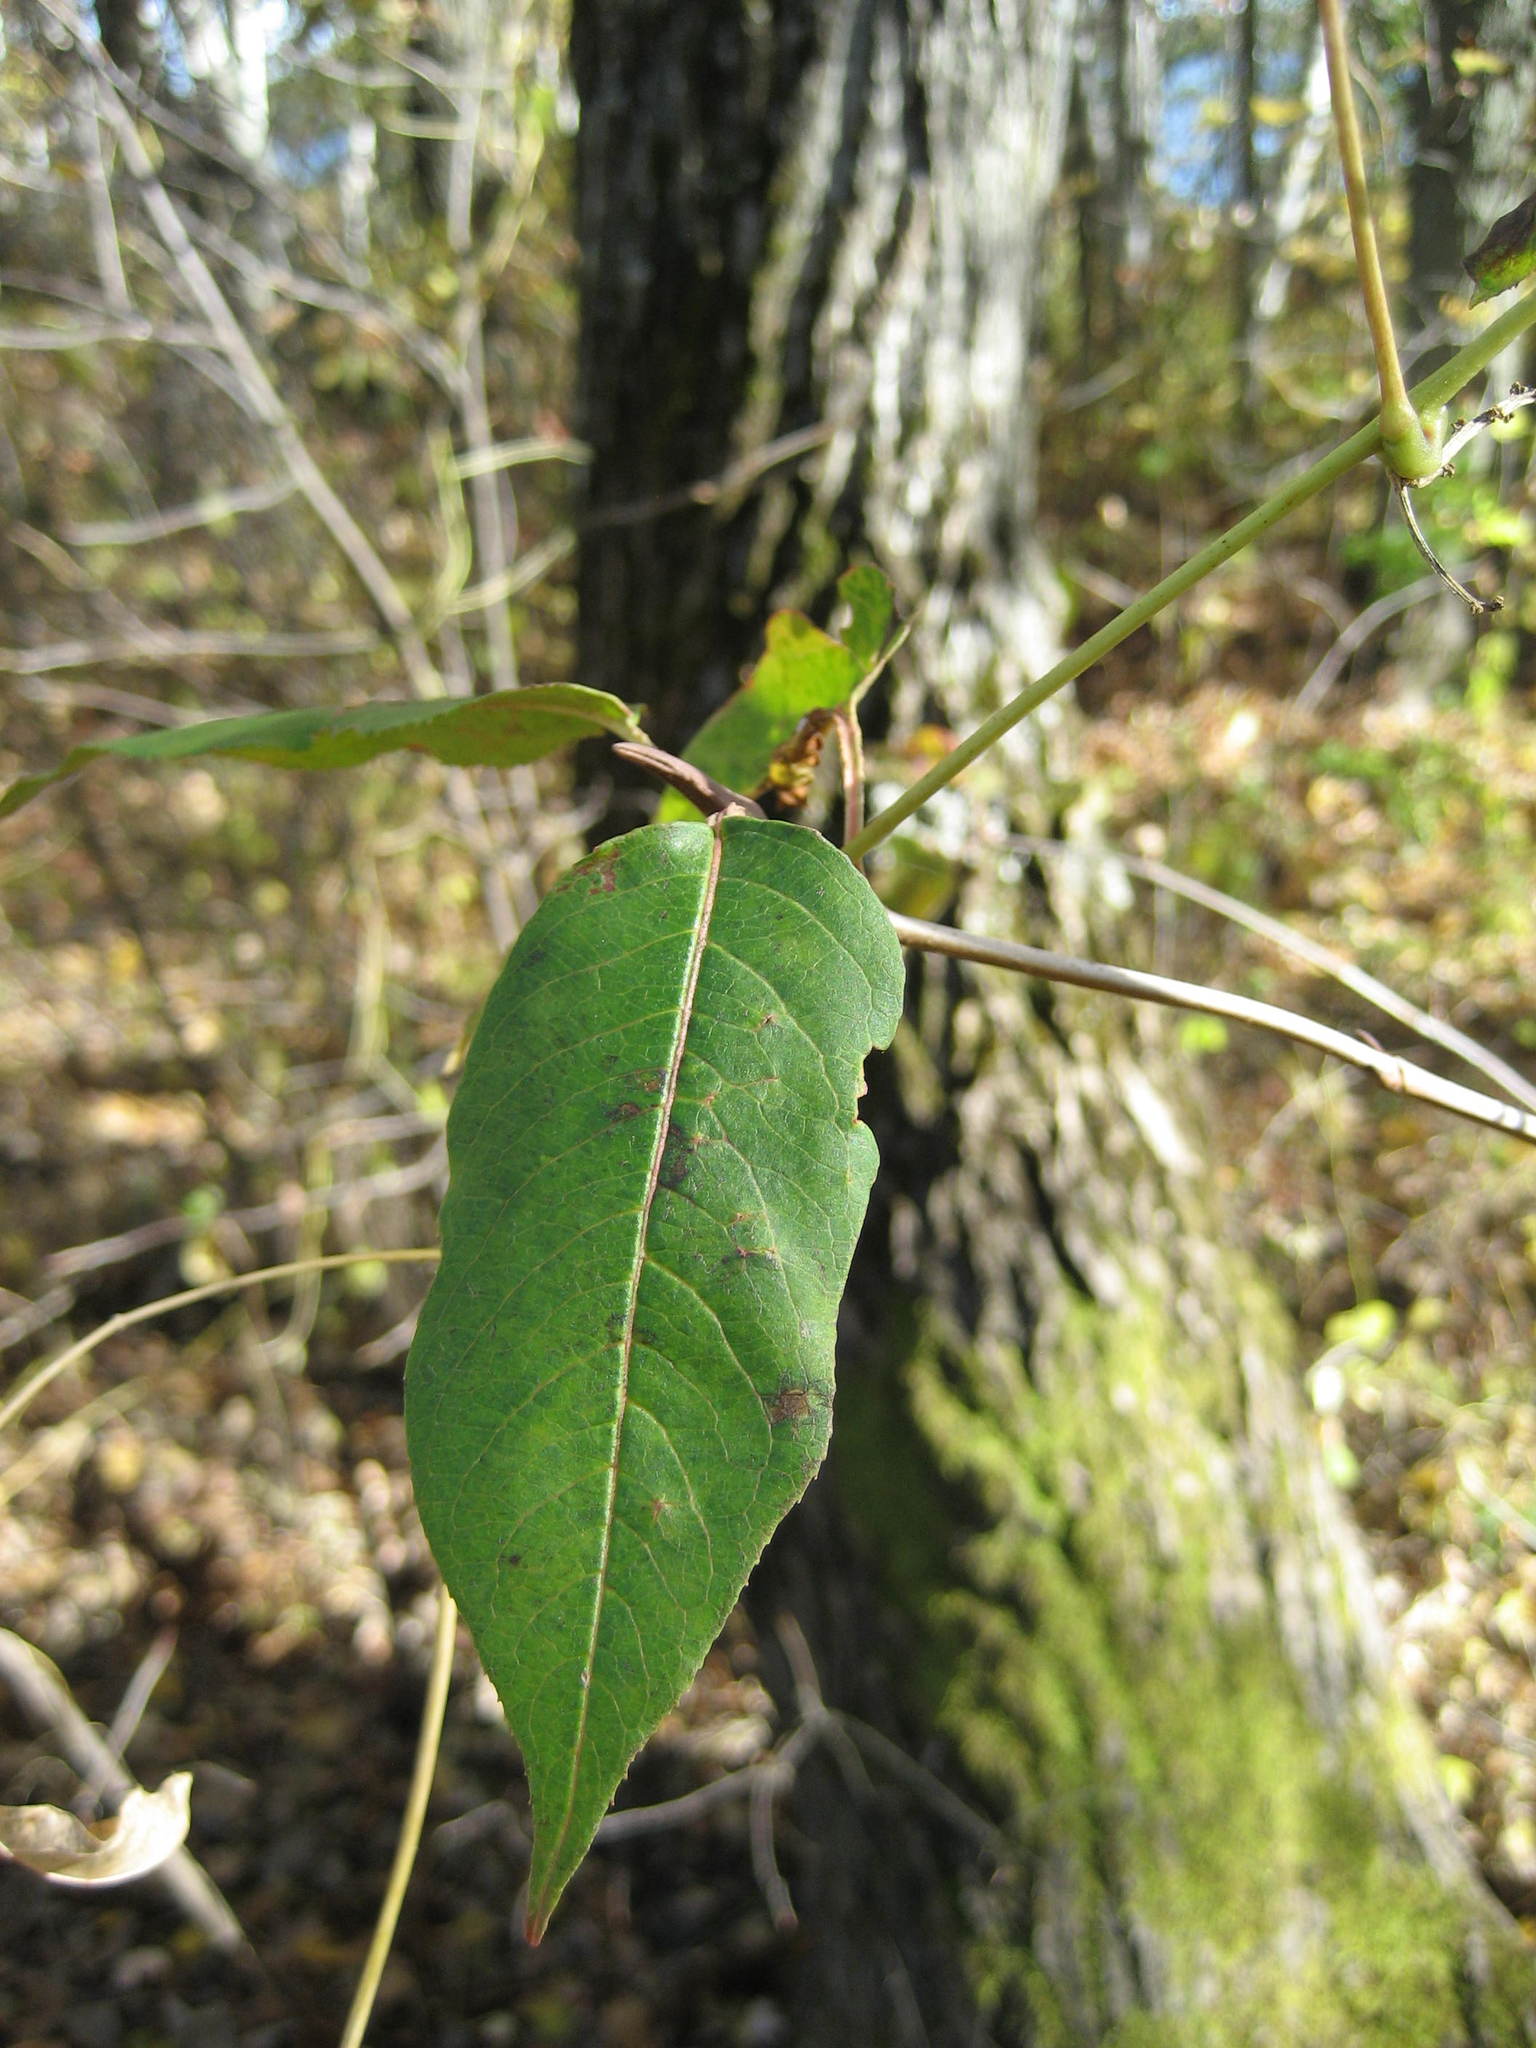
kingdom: Plantae
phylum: Tracheophyta
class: Magnoliopsida
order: Dipsacales
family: Viburnaceae
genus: Viburnum
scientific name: Viburnum lentago
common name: Black haw
